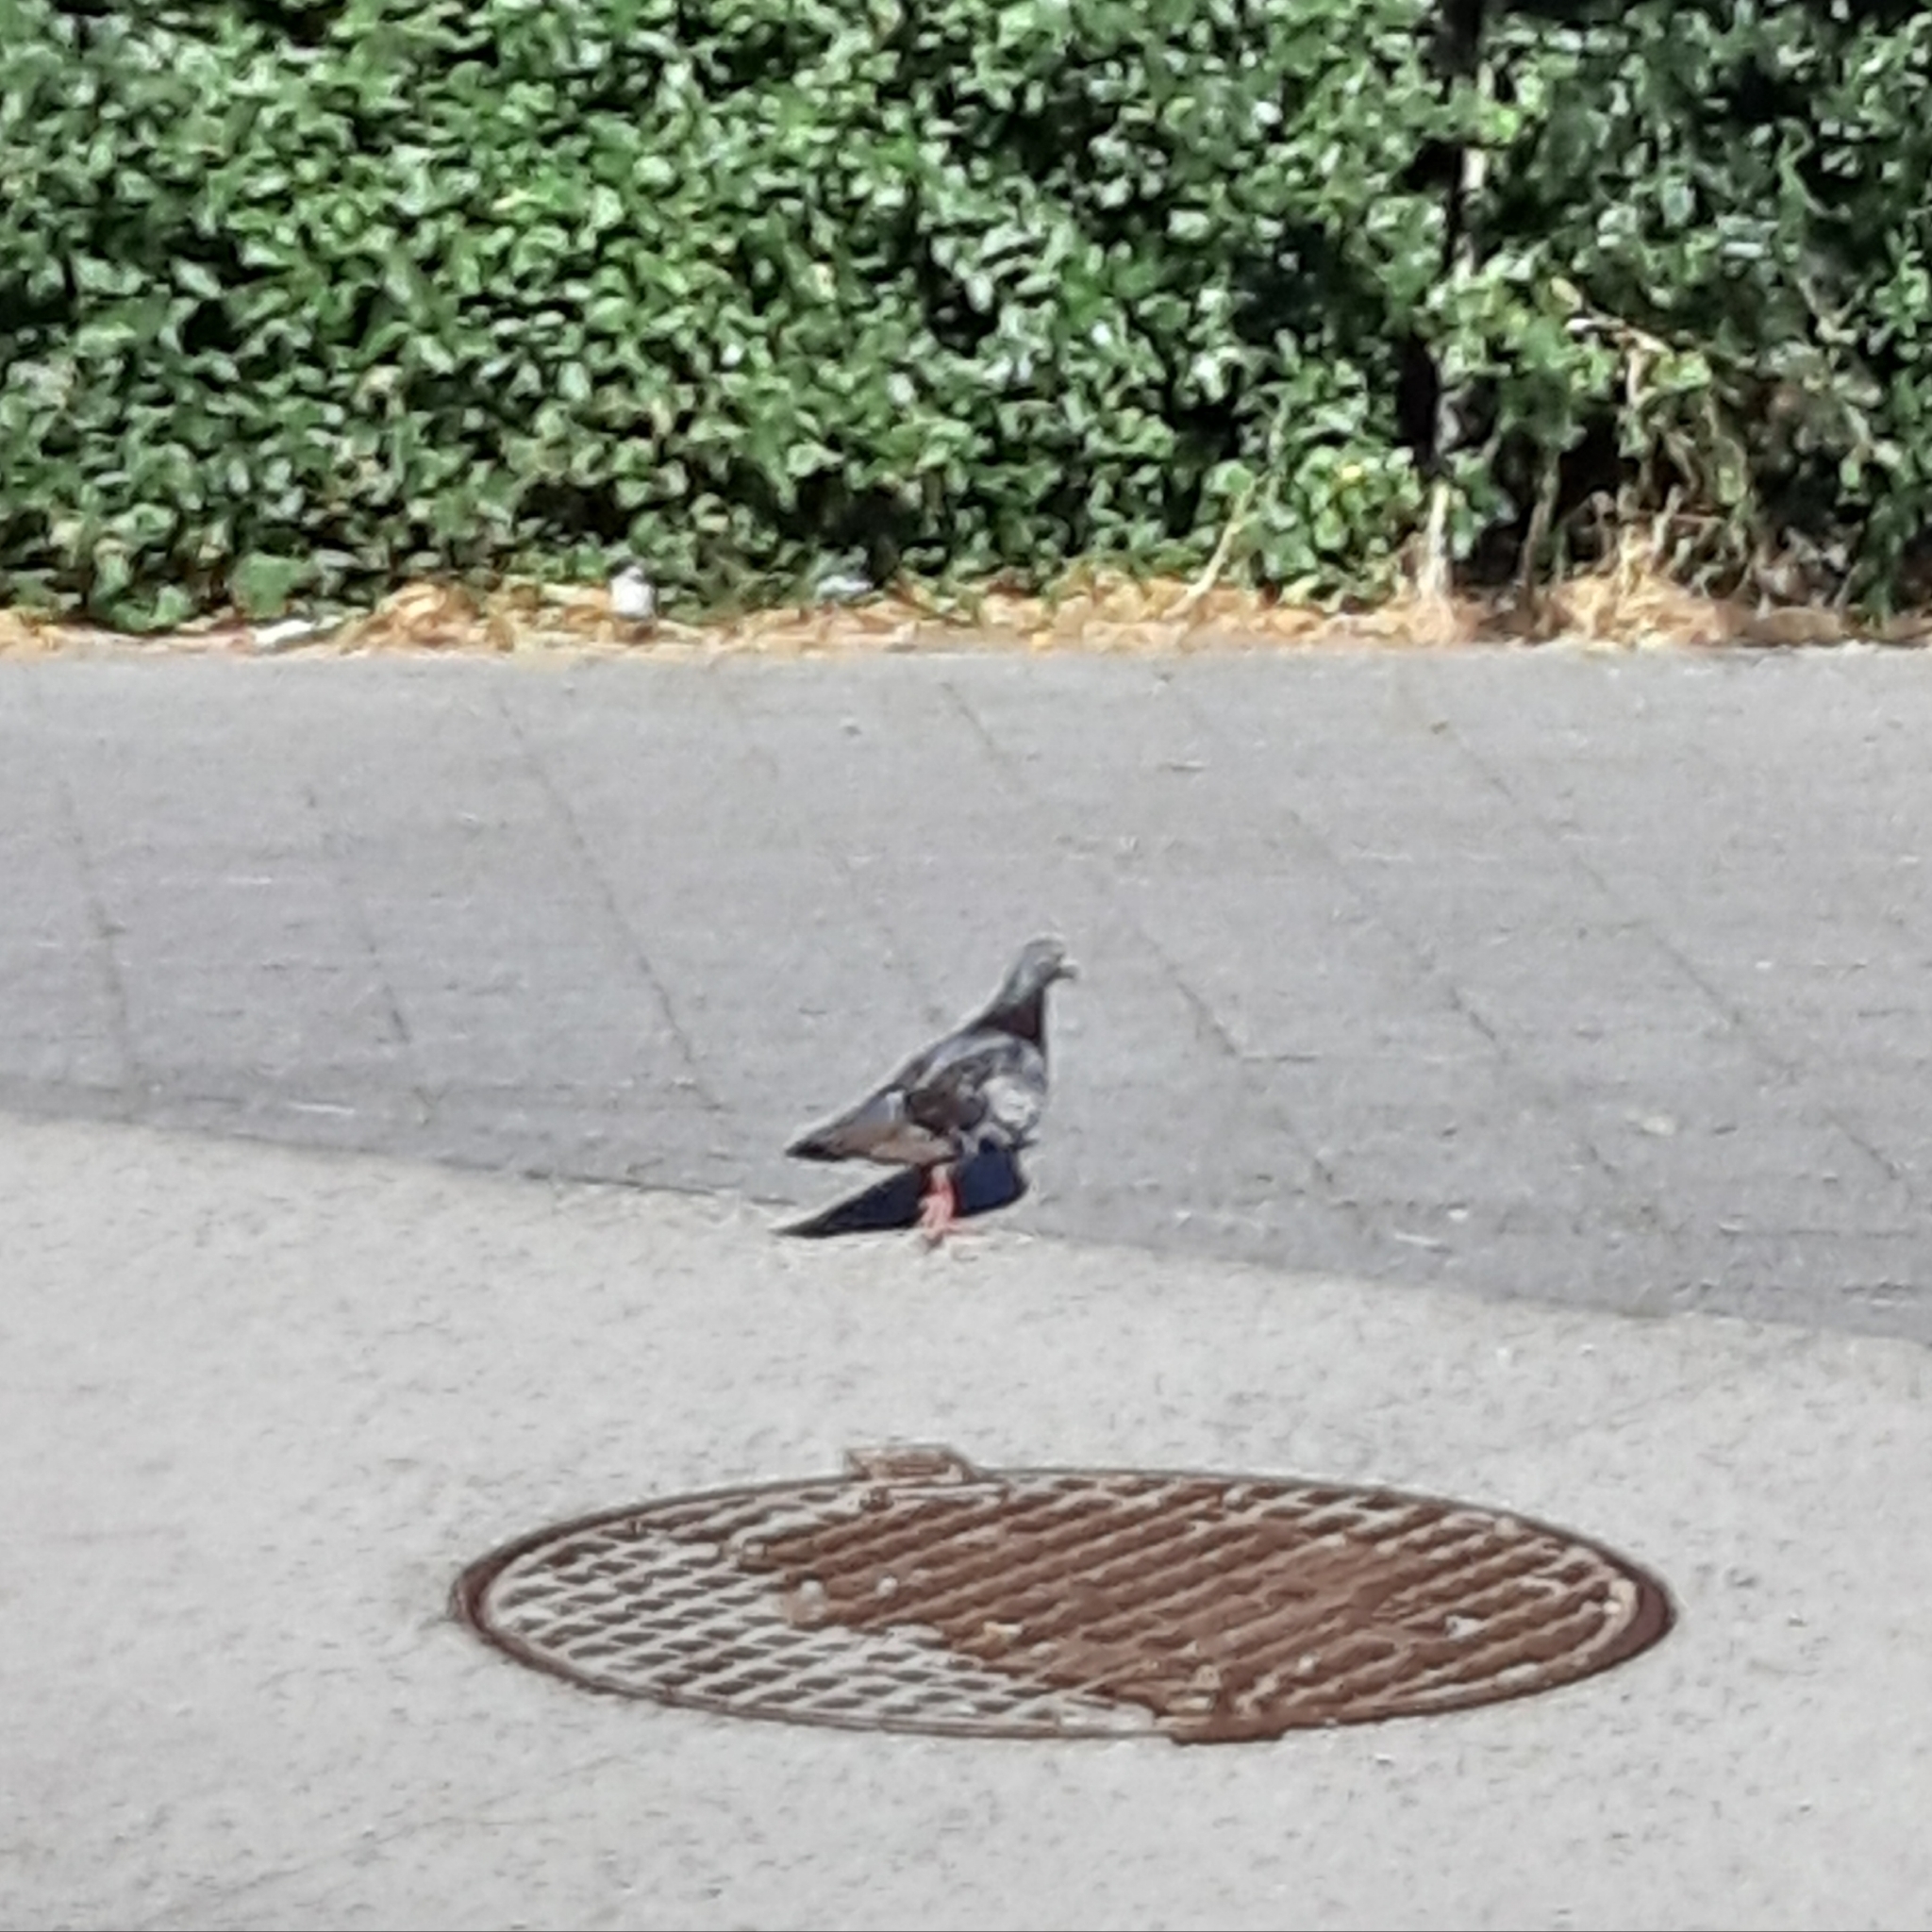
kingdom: Animalia
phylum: Chordata
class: Aves
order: Columbiformes
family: Columbidae
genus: Columba
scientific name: Columba livia
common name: Rock pigeon
